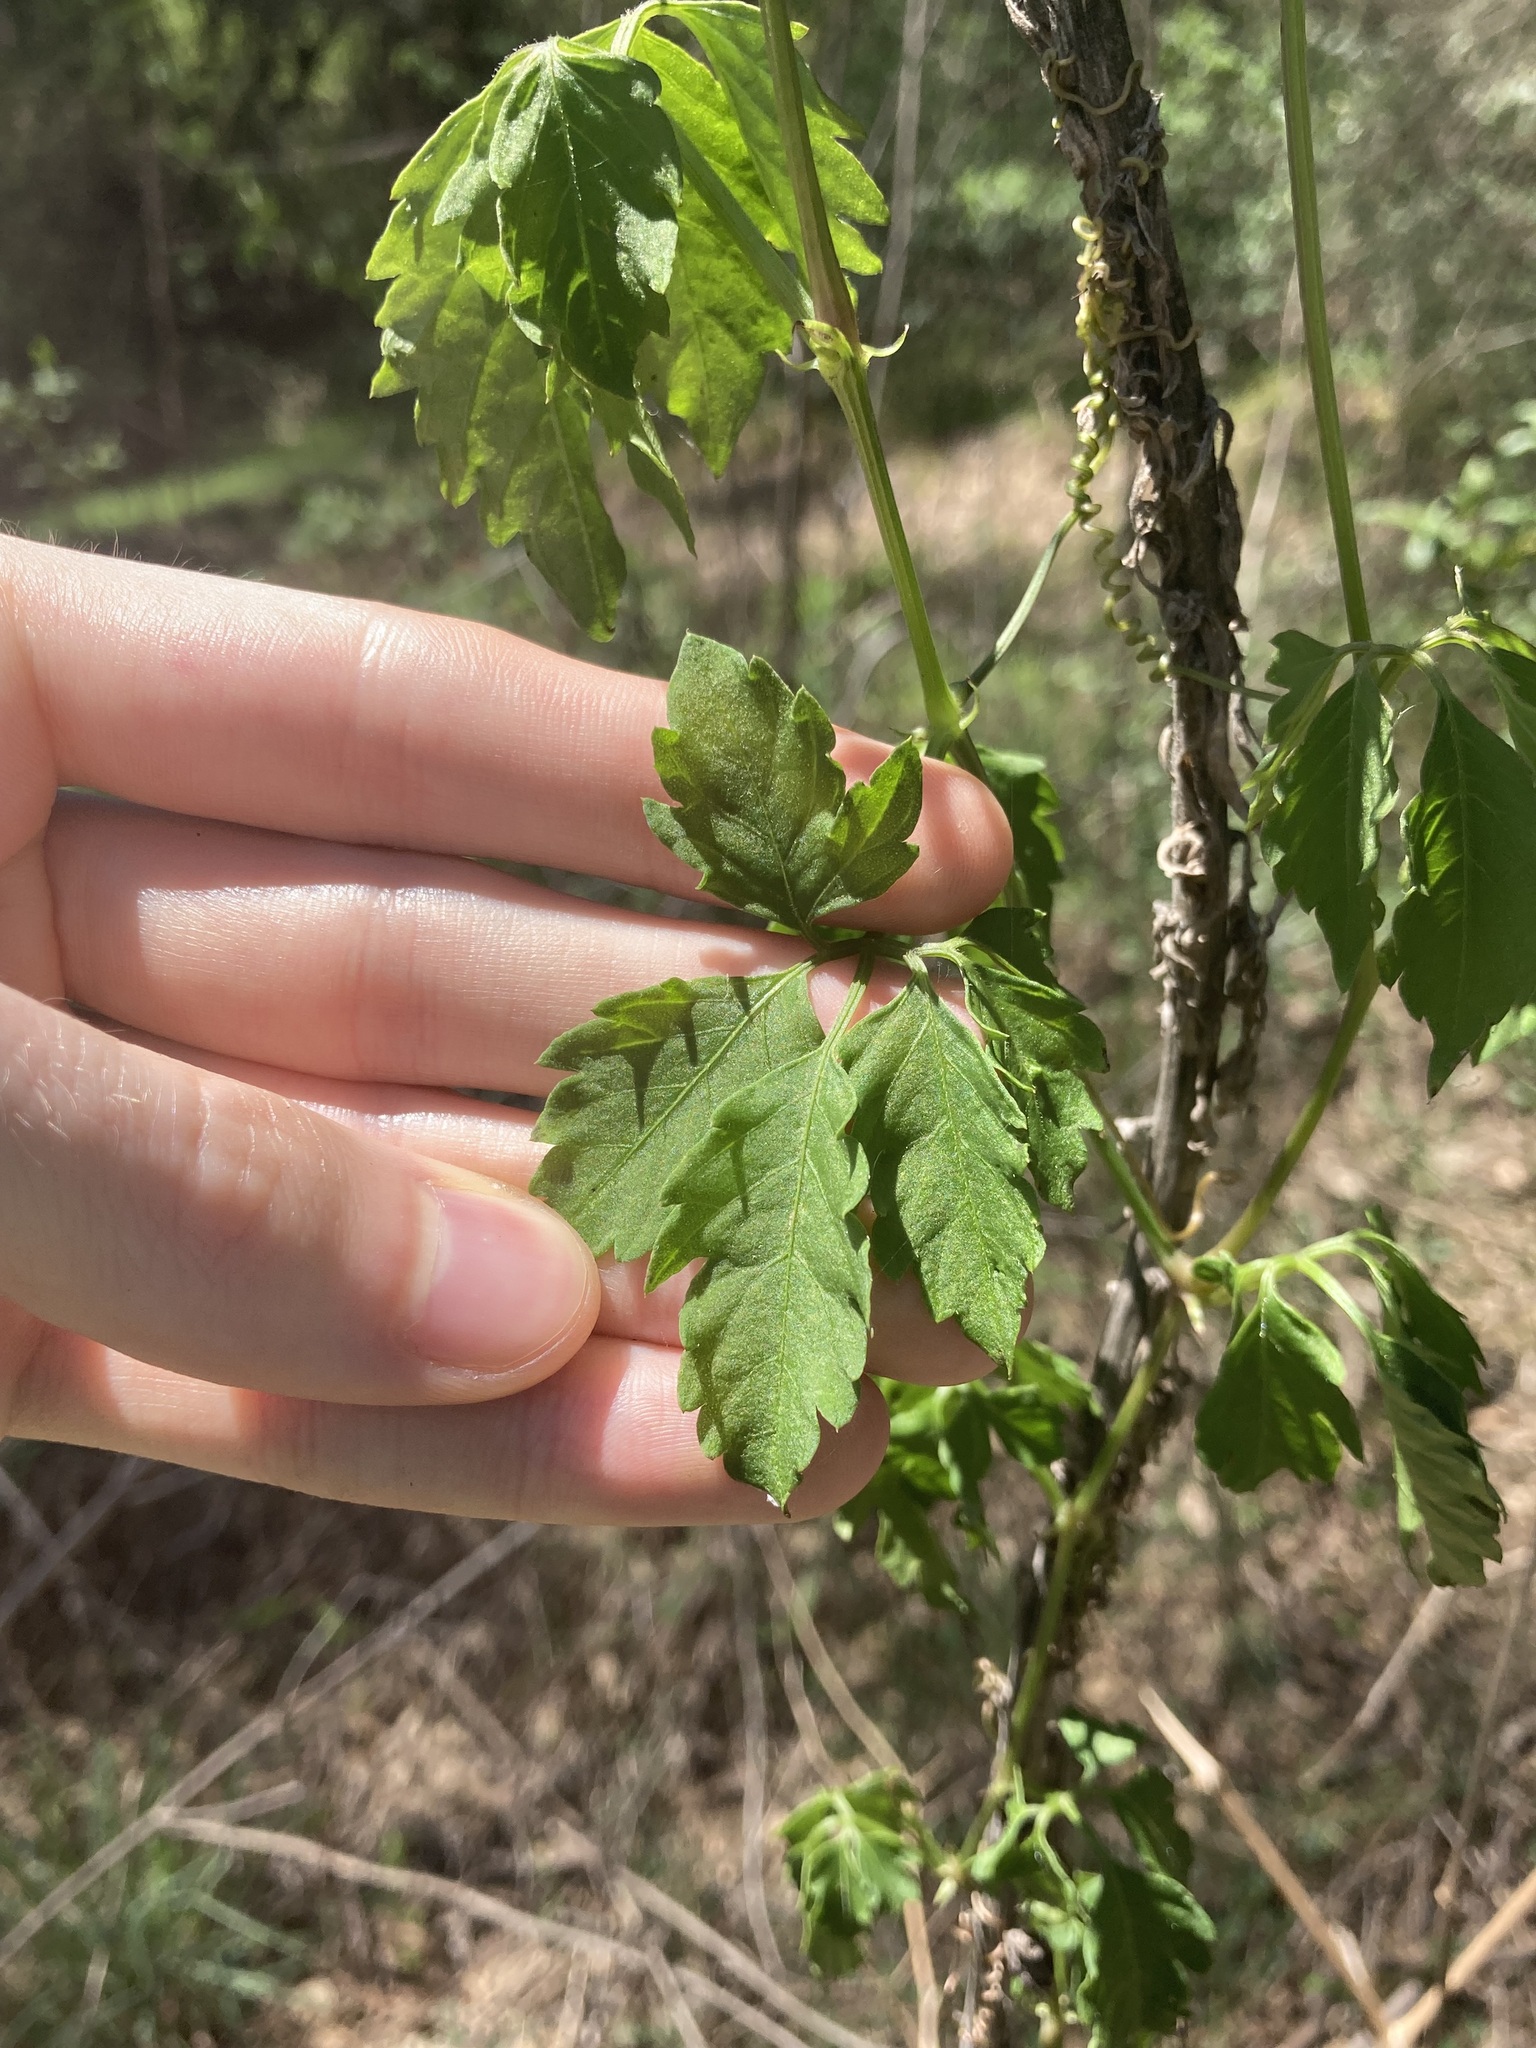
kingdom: Plantae
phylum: Tracheophyta
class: Magnoliopsida
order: Vitales
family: Vitaceae
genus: Causonis
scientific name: Causonis clematidea
